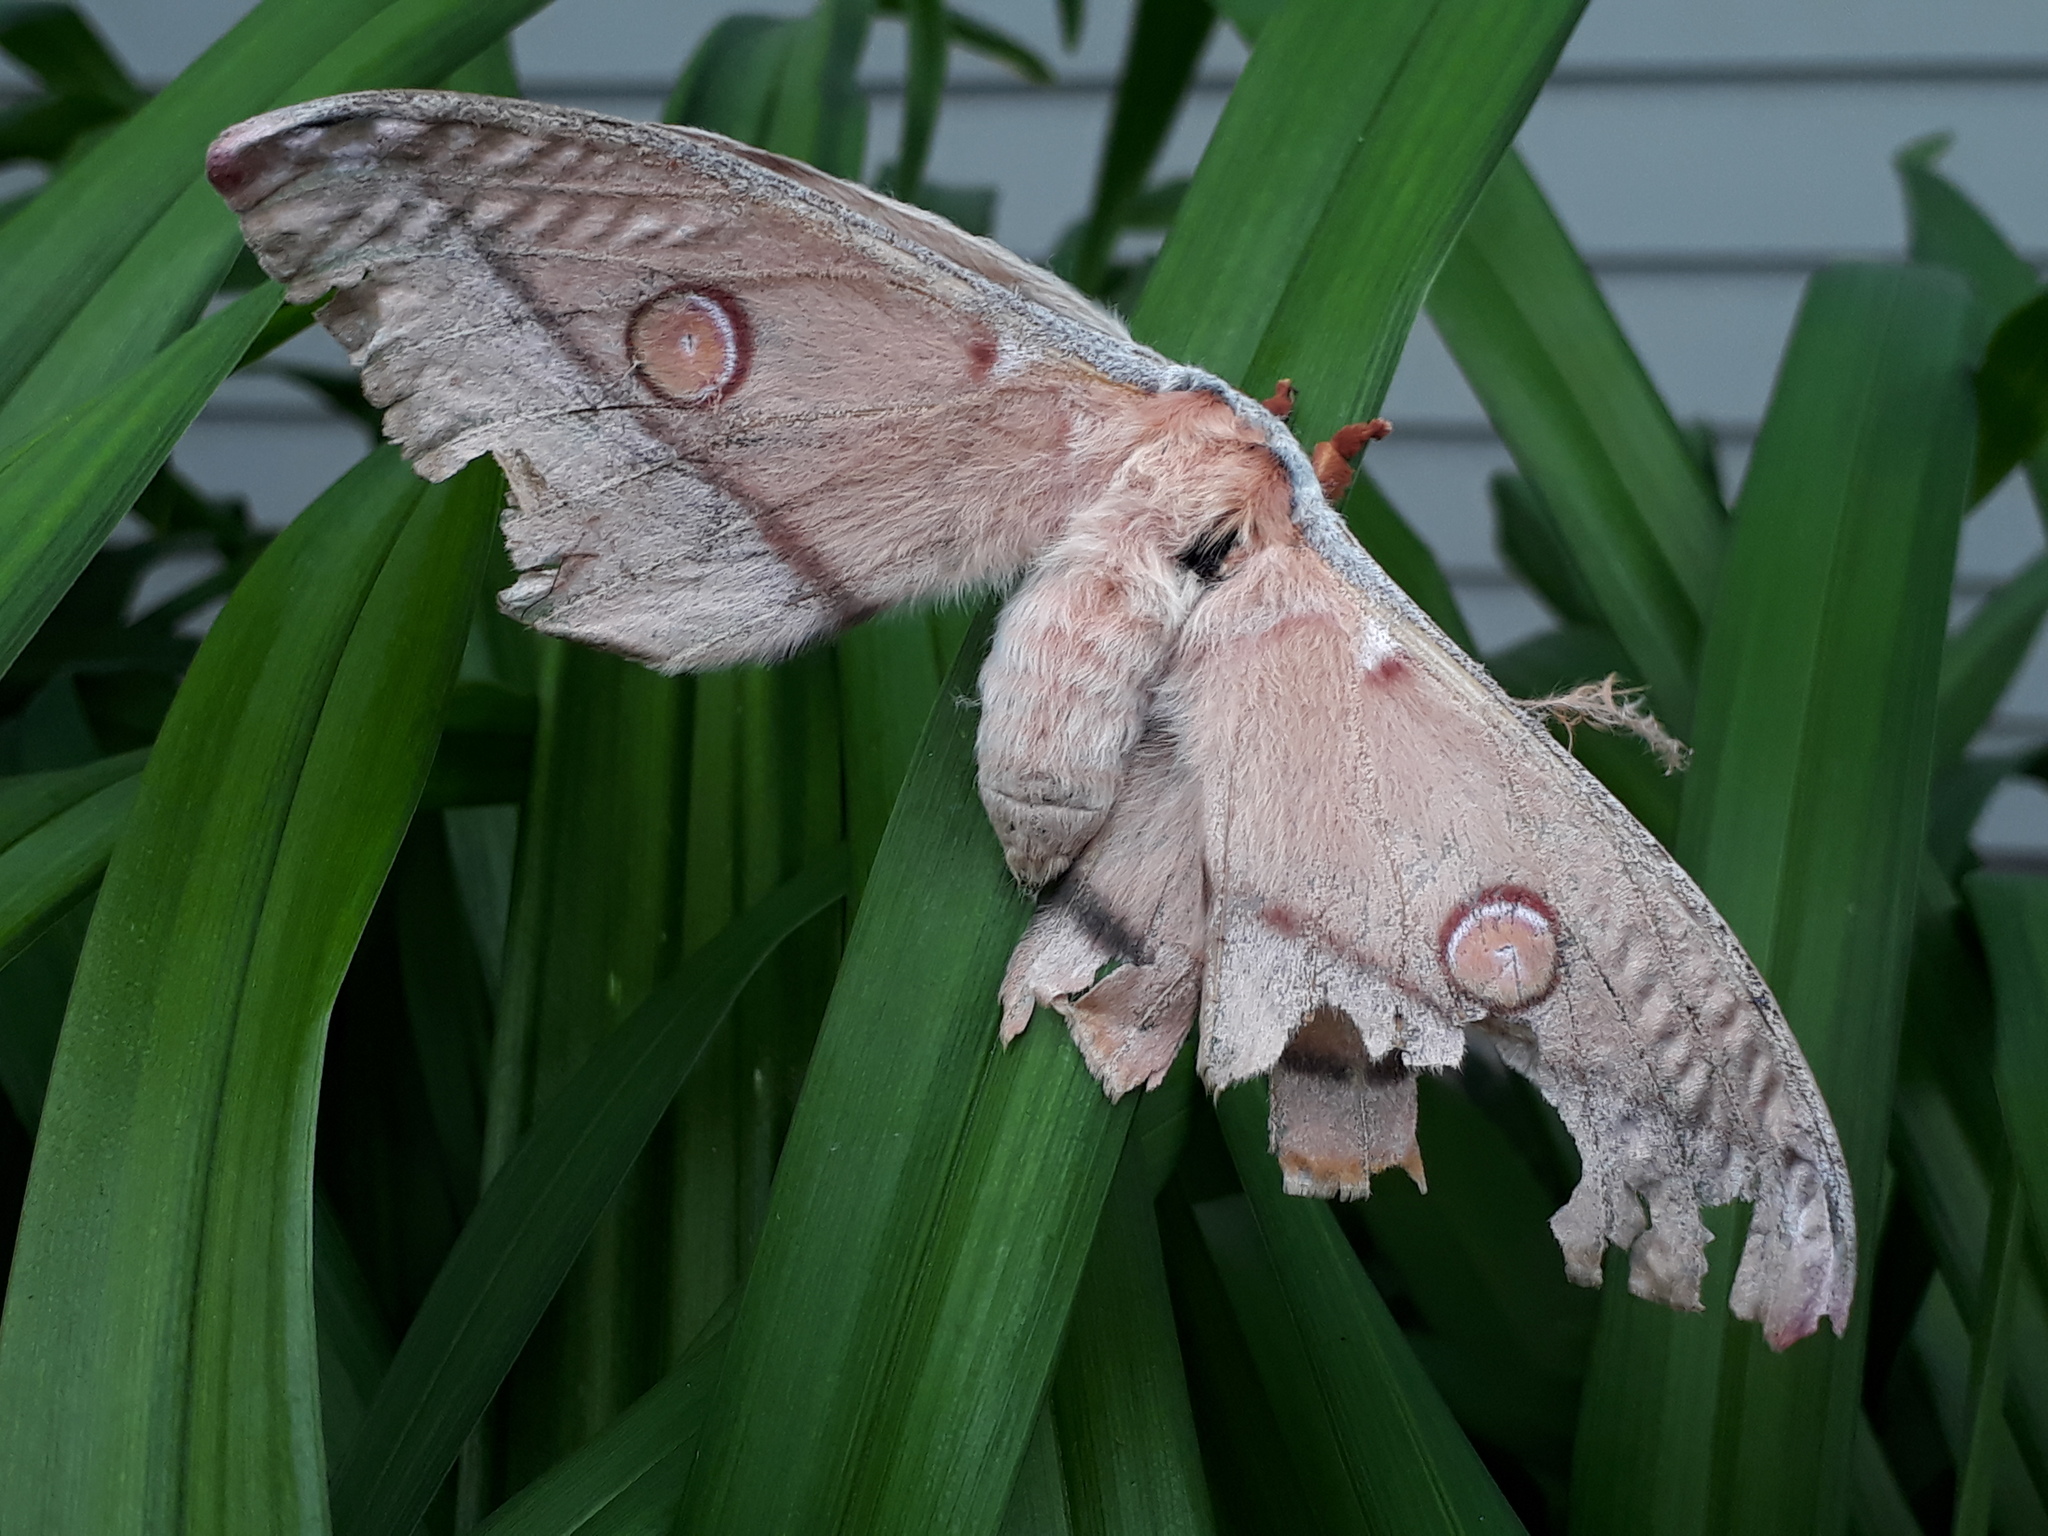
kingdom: Animalia
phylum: Arthropoda
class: Insecta
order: Lepidoptera
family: Saturniidae
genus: Opodiphthera
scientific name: Opodiphthera
